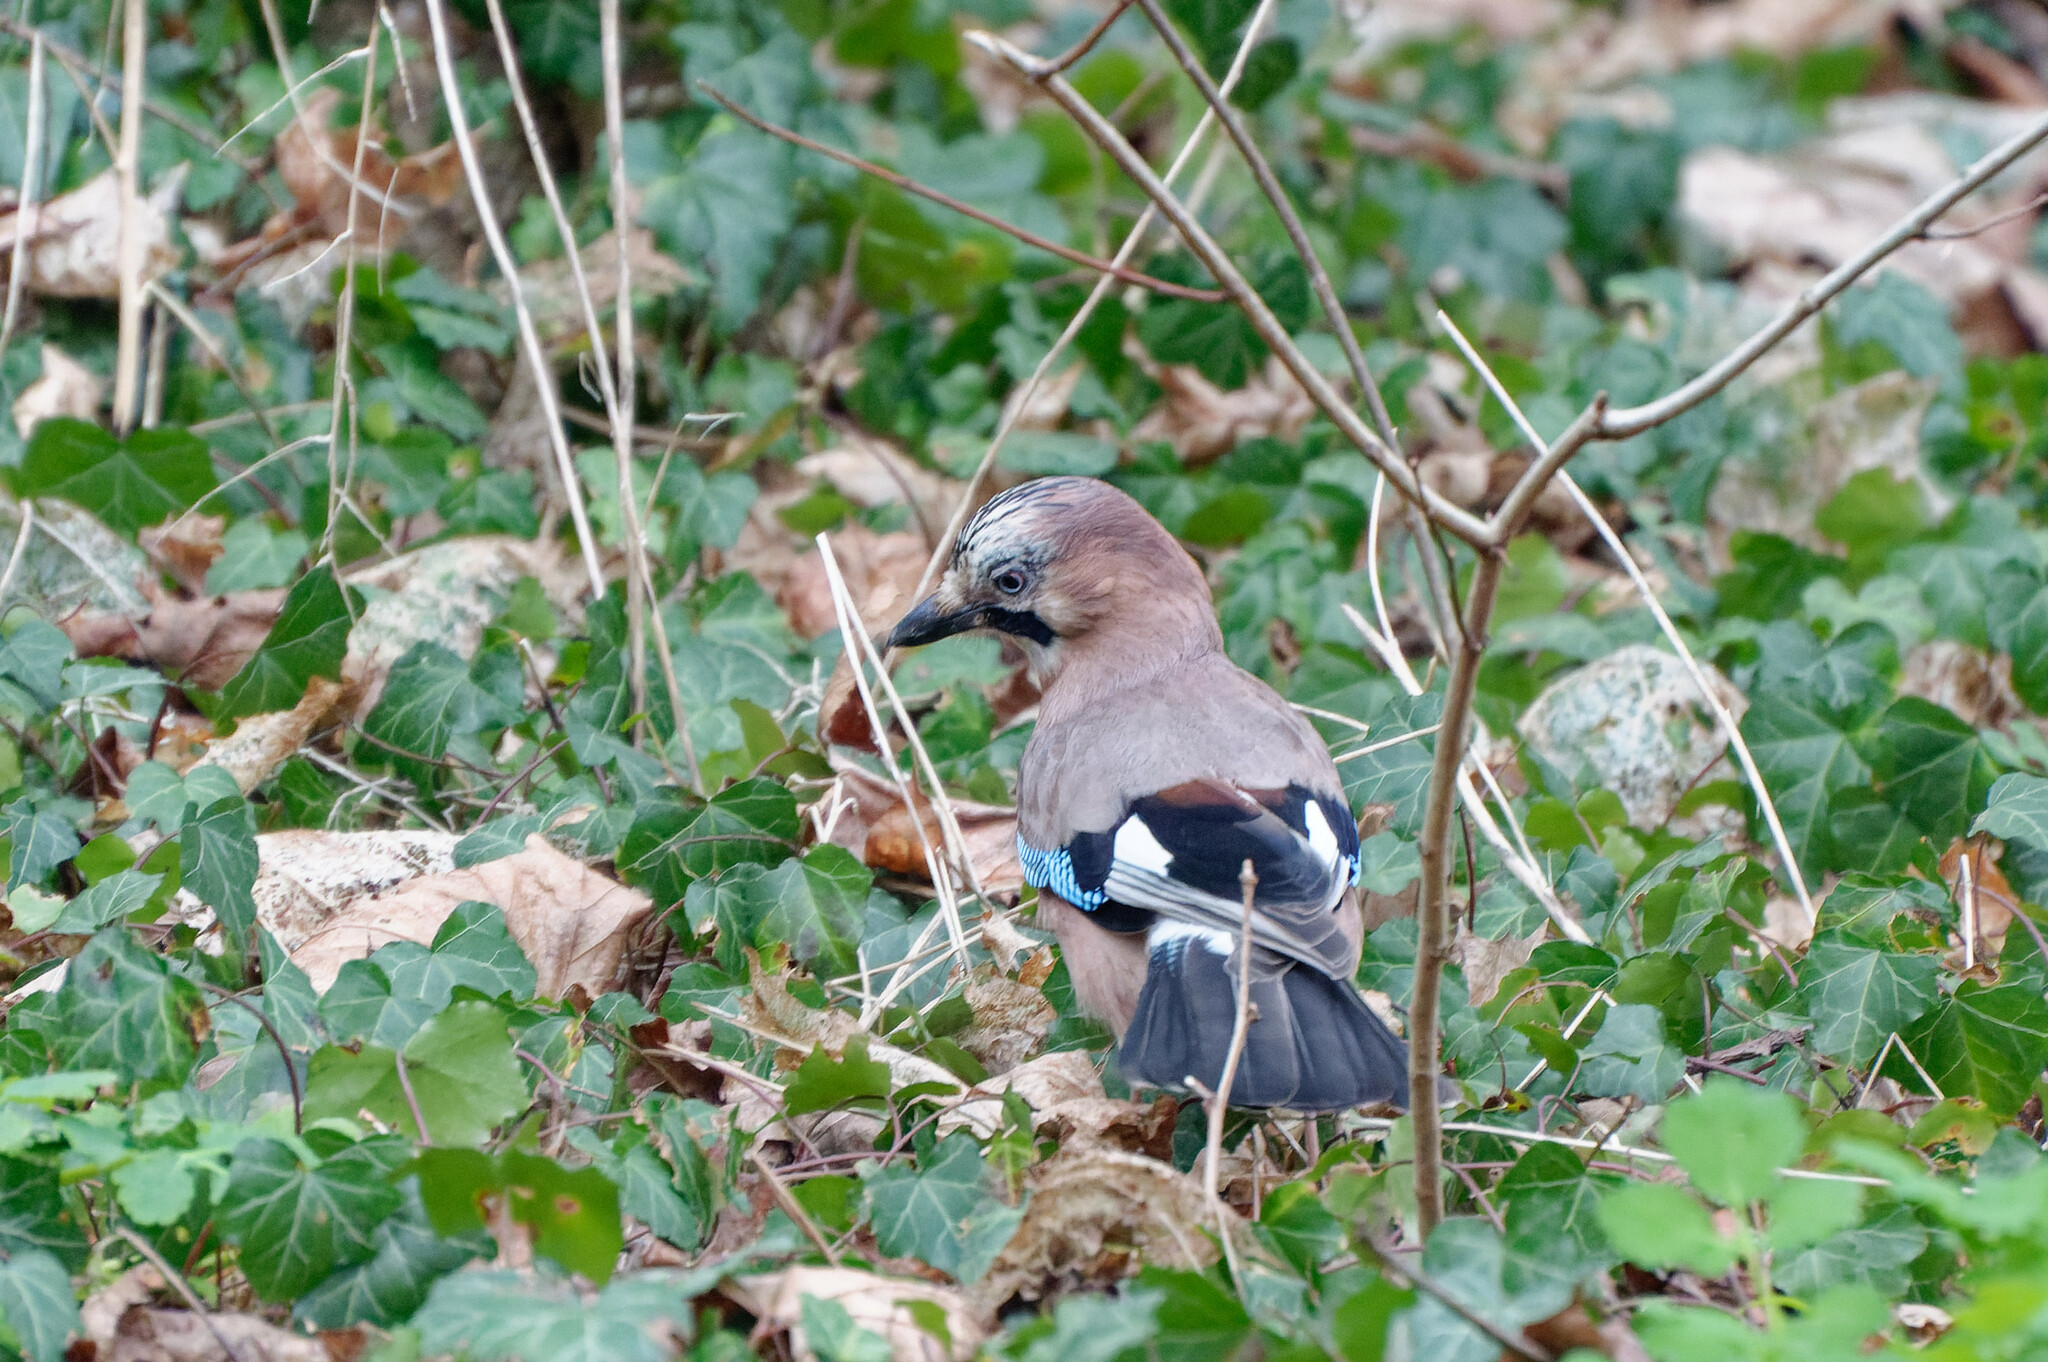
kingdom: Animalia
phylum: Chordata
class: Aves
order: Passeriformes
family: Corvidae
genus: Garrulus
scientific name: Garrulus glandarius
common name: Eurasian jay
